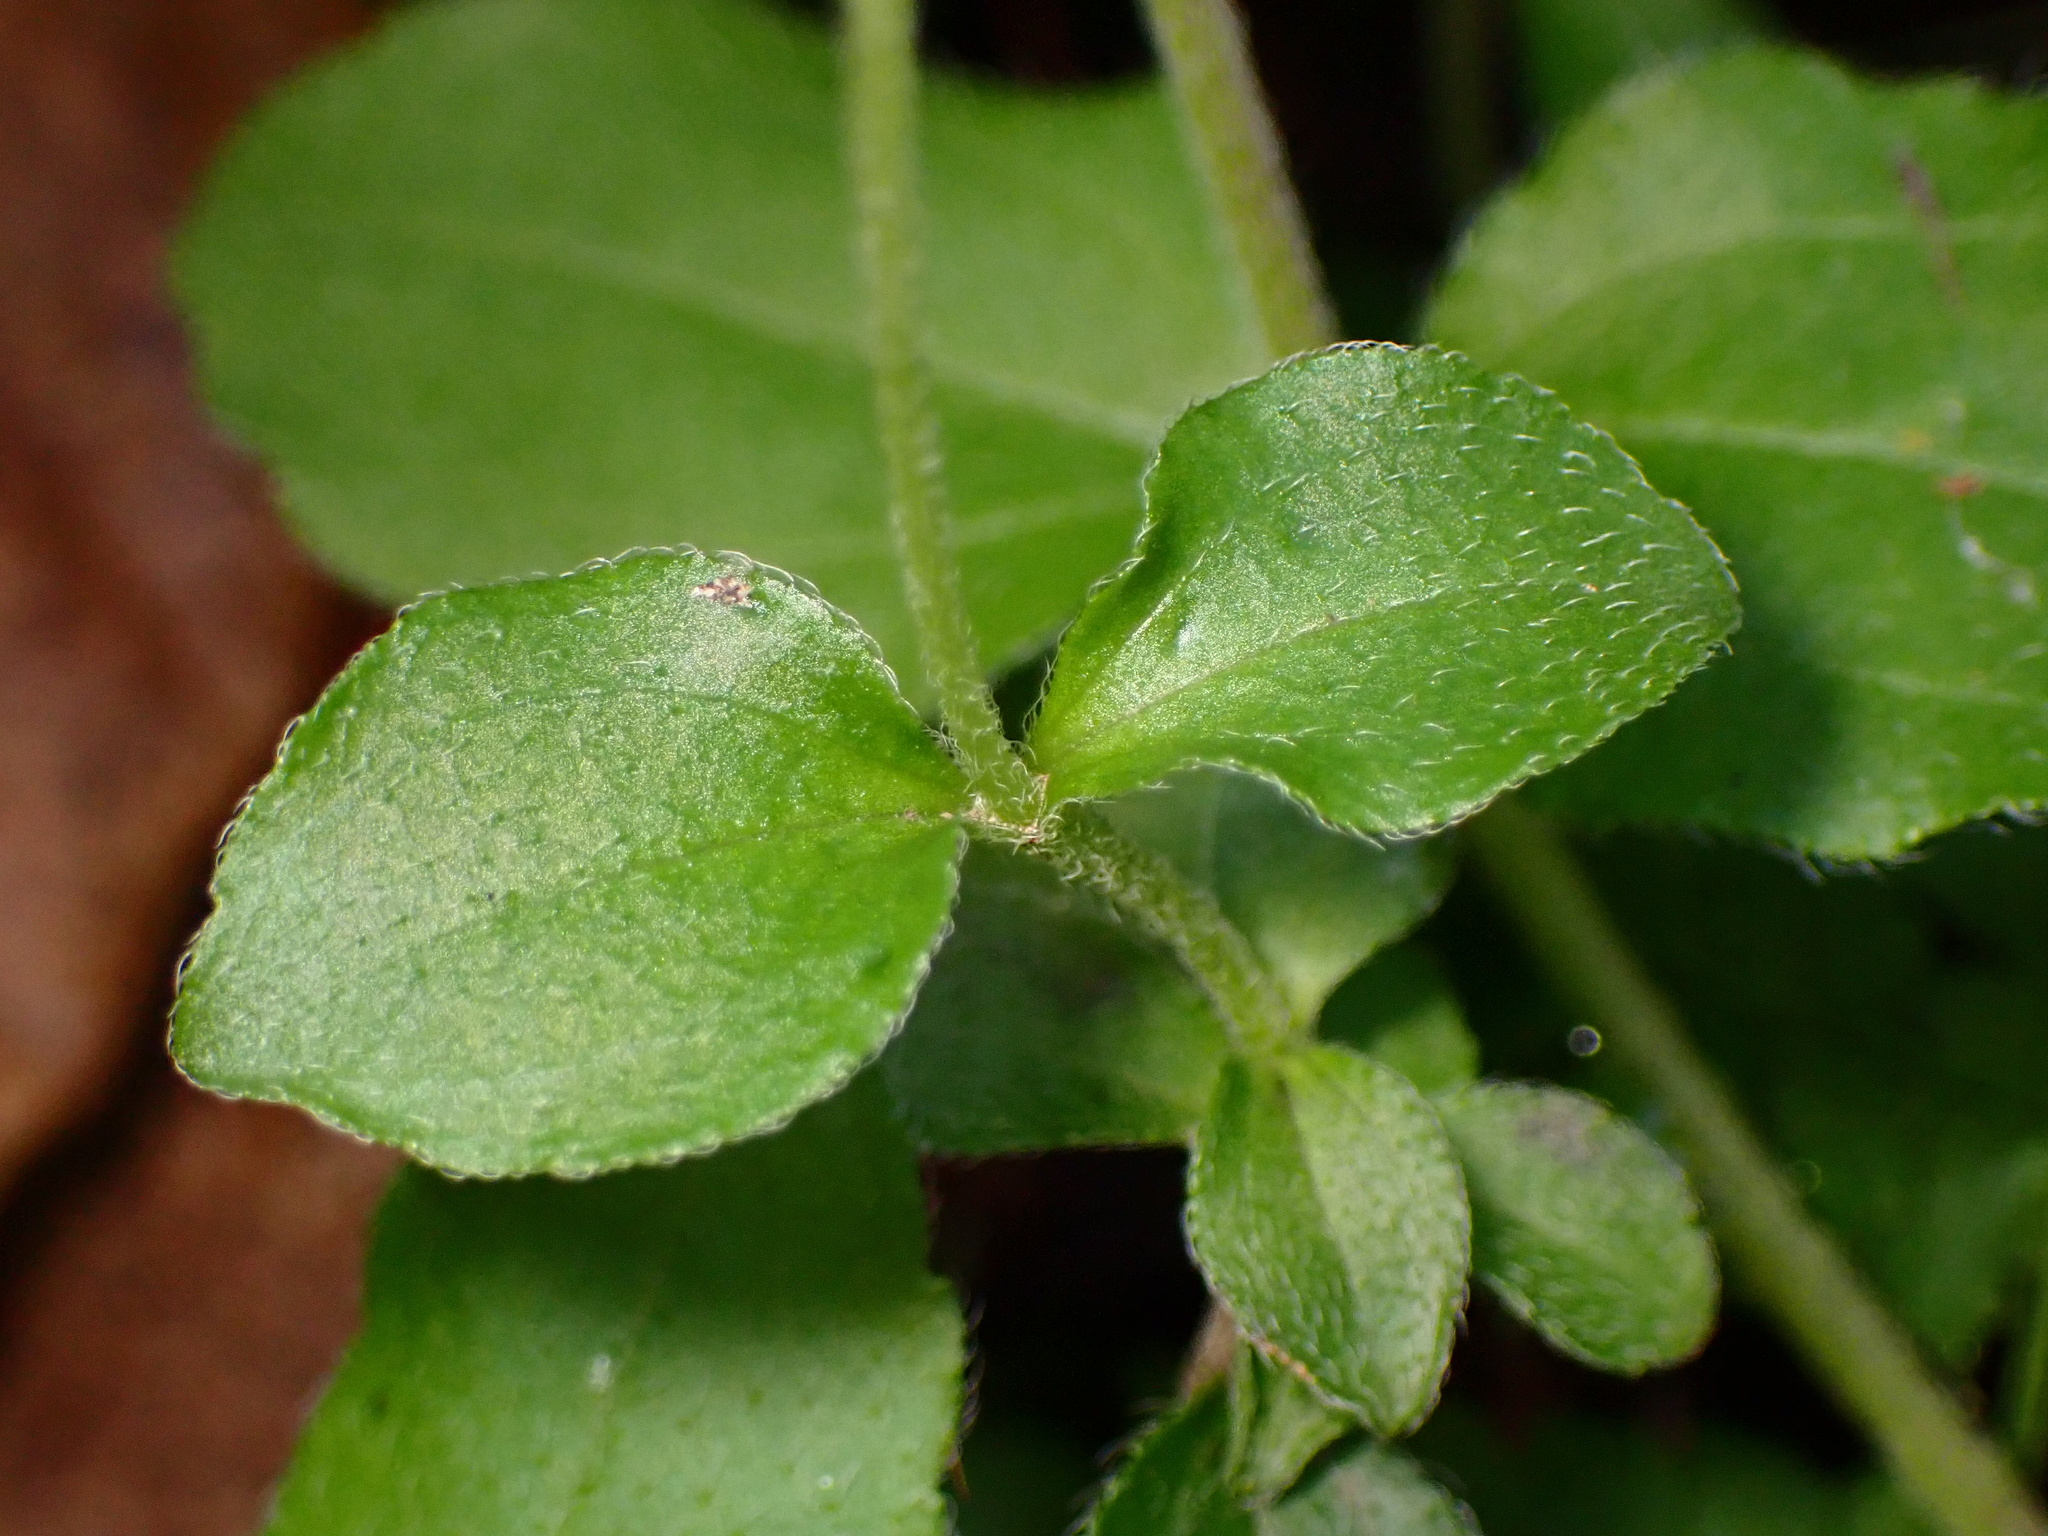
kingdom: Plantae
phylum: Tracheophyta
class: Magnoliopsida
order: Cornales
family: Hydrangeaceae
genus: Whipplea
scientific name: Whipplea modesta
